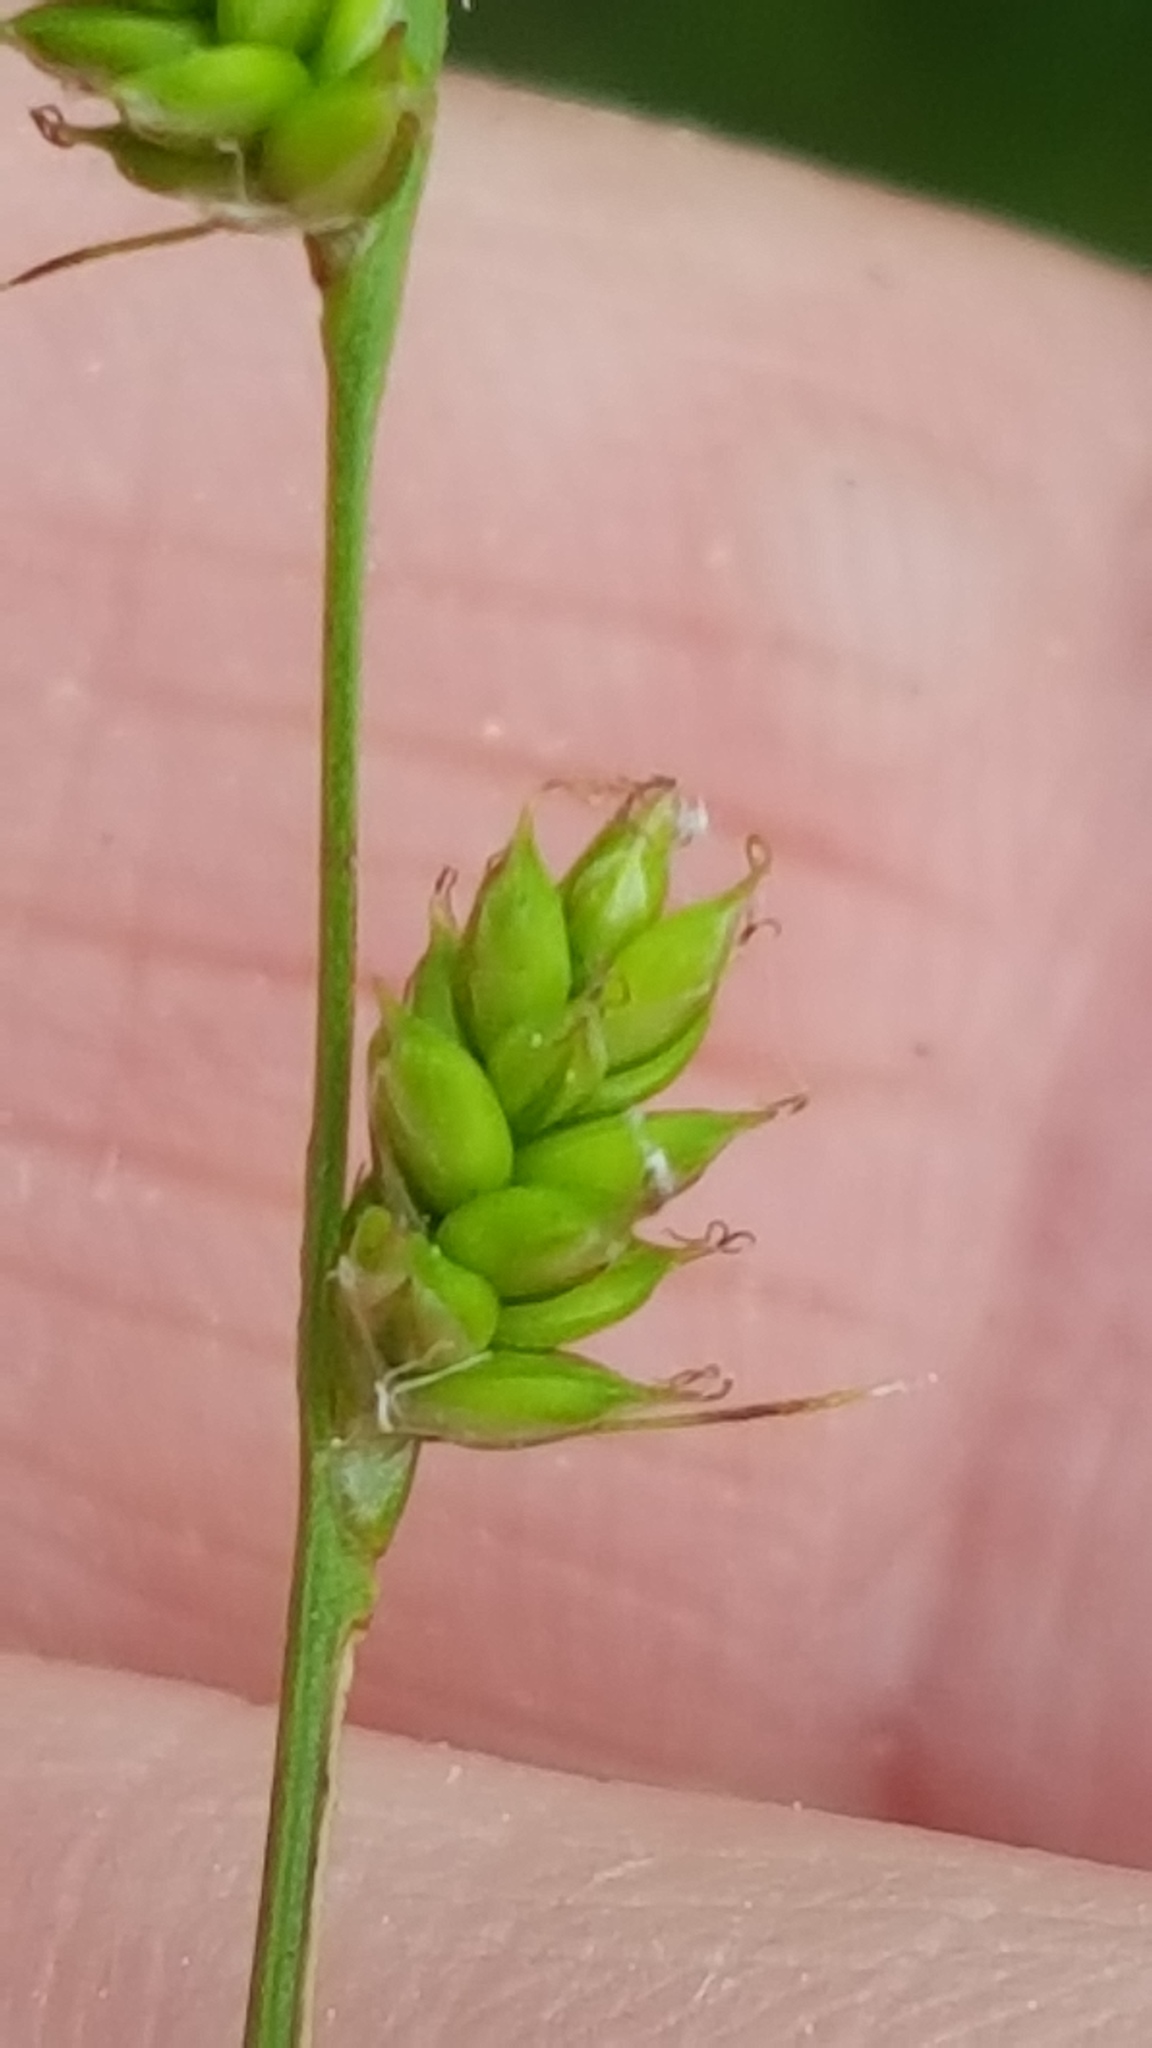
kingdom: Plantae
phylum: Tracheophyta
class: Liliopsida
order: Poales
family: Cyperaceae
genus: Carex
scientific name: Carex canescens
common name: White sedge
